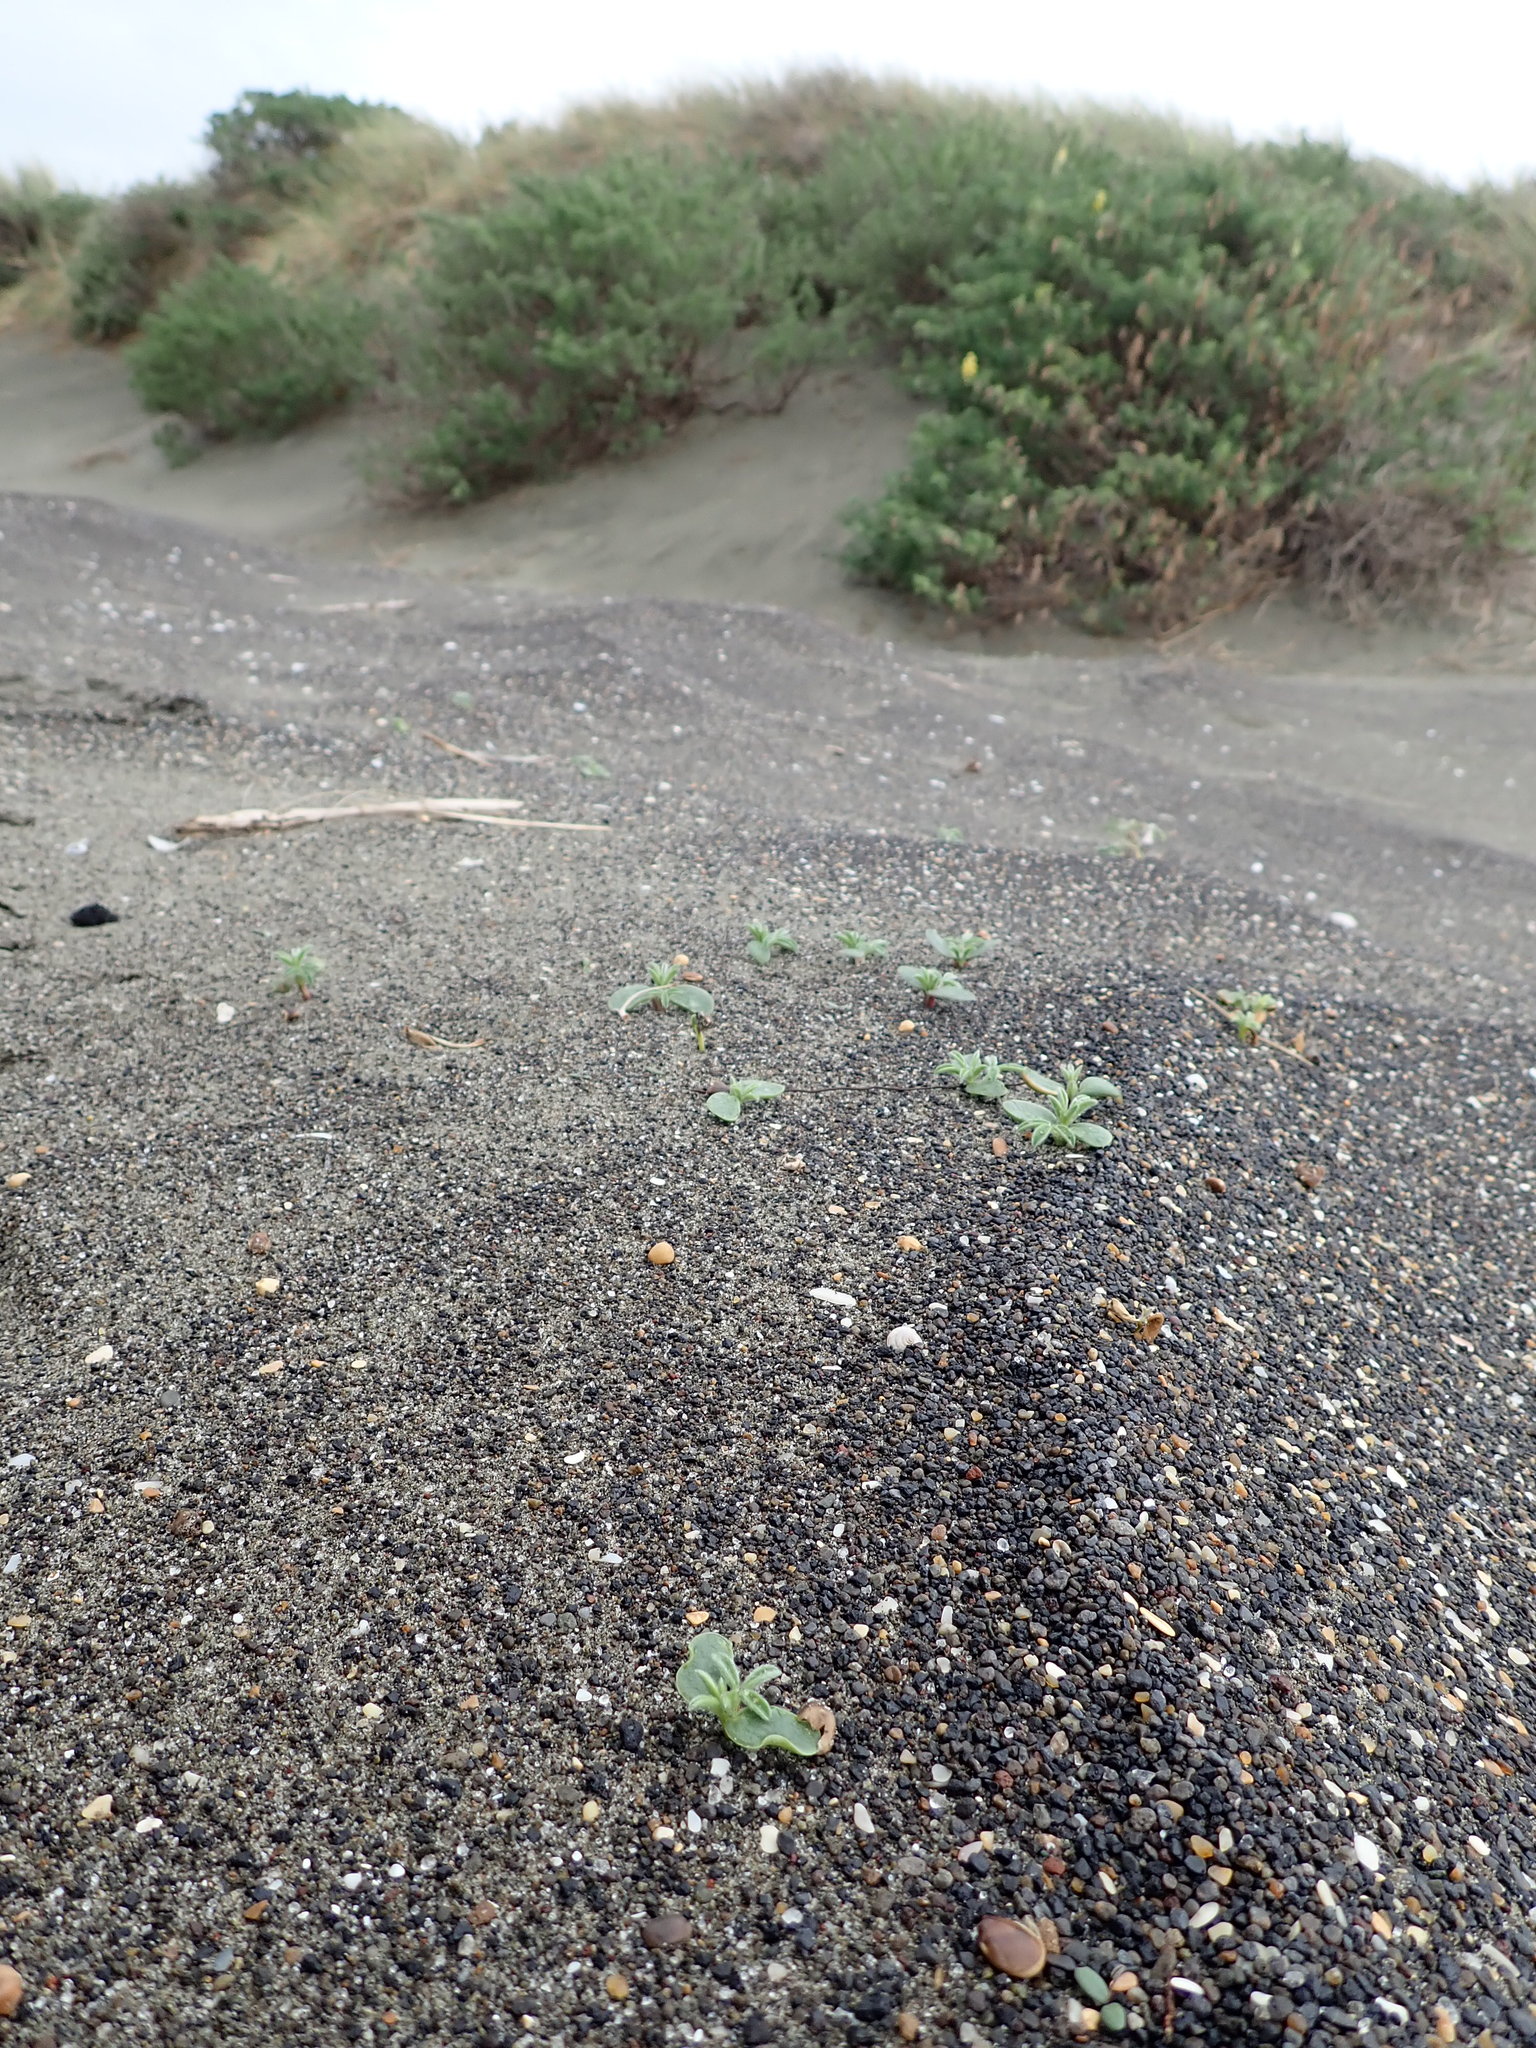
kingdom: Plantae
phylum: Tracheophyta
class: Magnoliopsida
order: Fabales
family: Fabaceae
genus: Lupinus
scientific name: Lupinus arboreus
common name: Yellow bush lupine
